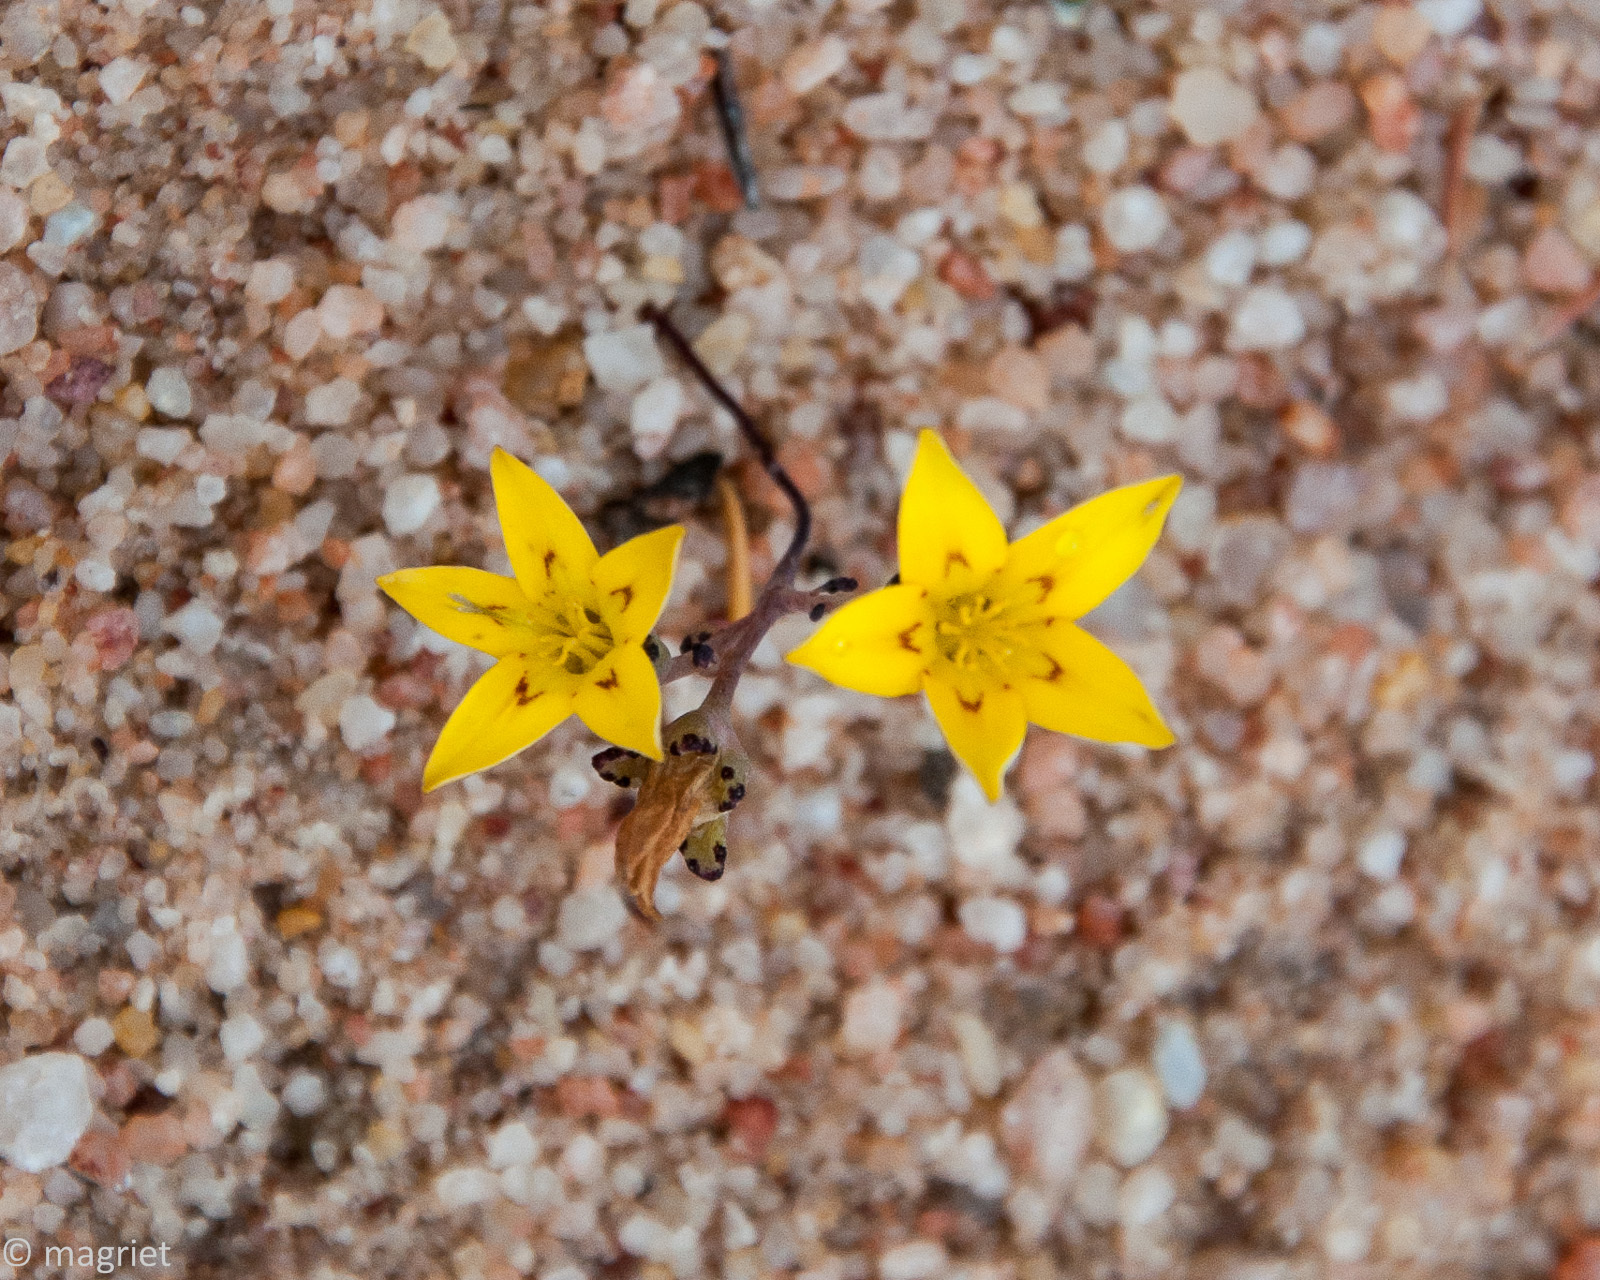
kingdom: Plantae
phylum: Tracheophyta
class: Magnoliopsida
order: Saxifragales
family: Crassulaceae
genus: Crassula
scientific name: Crassula dichotoma
